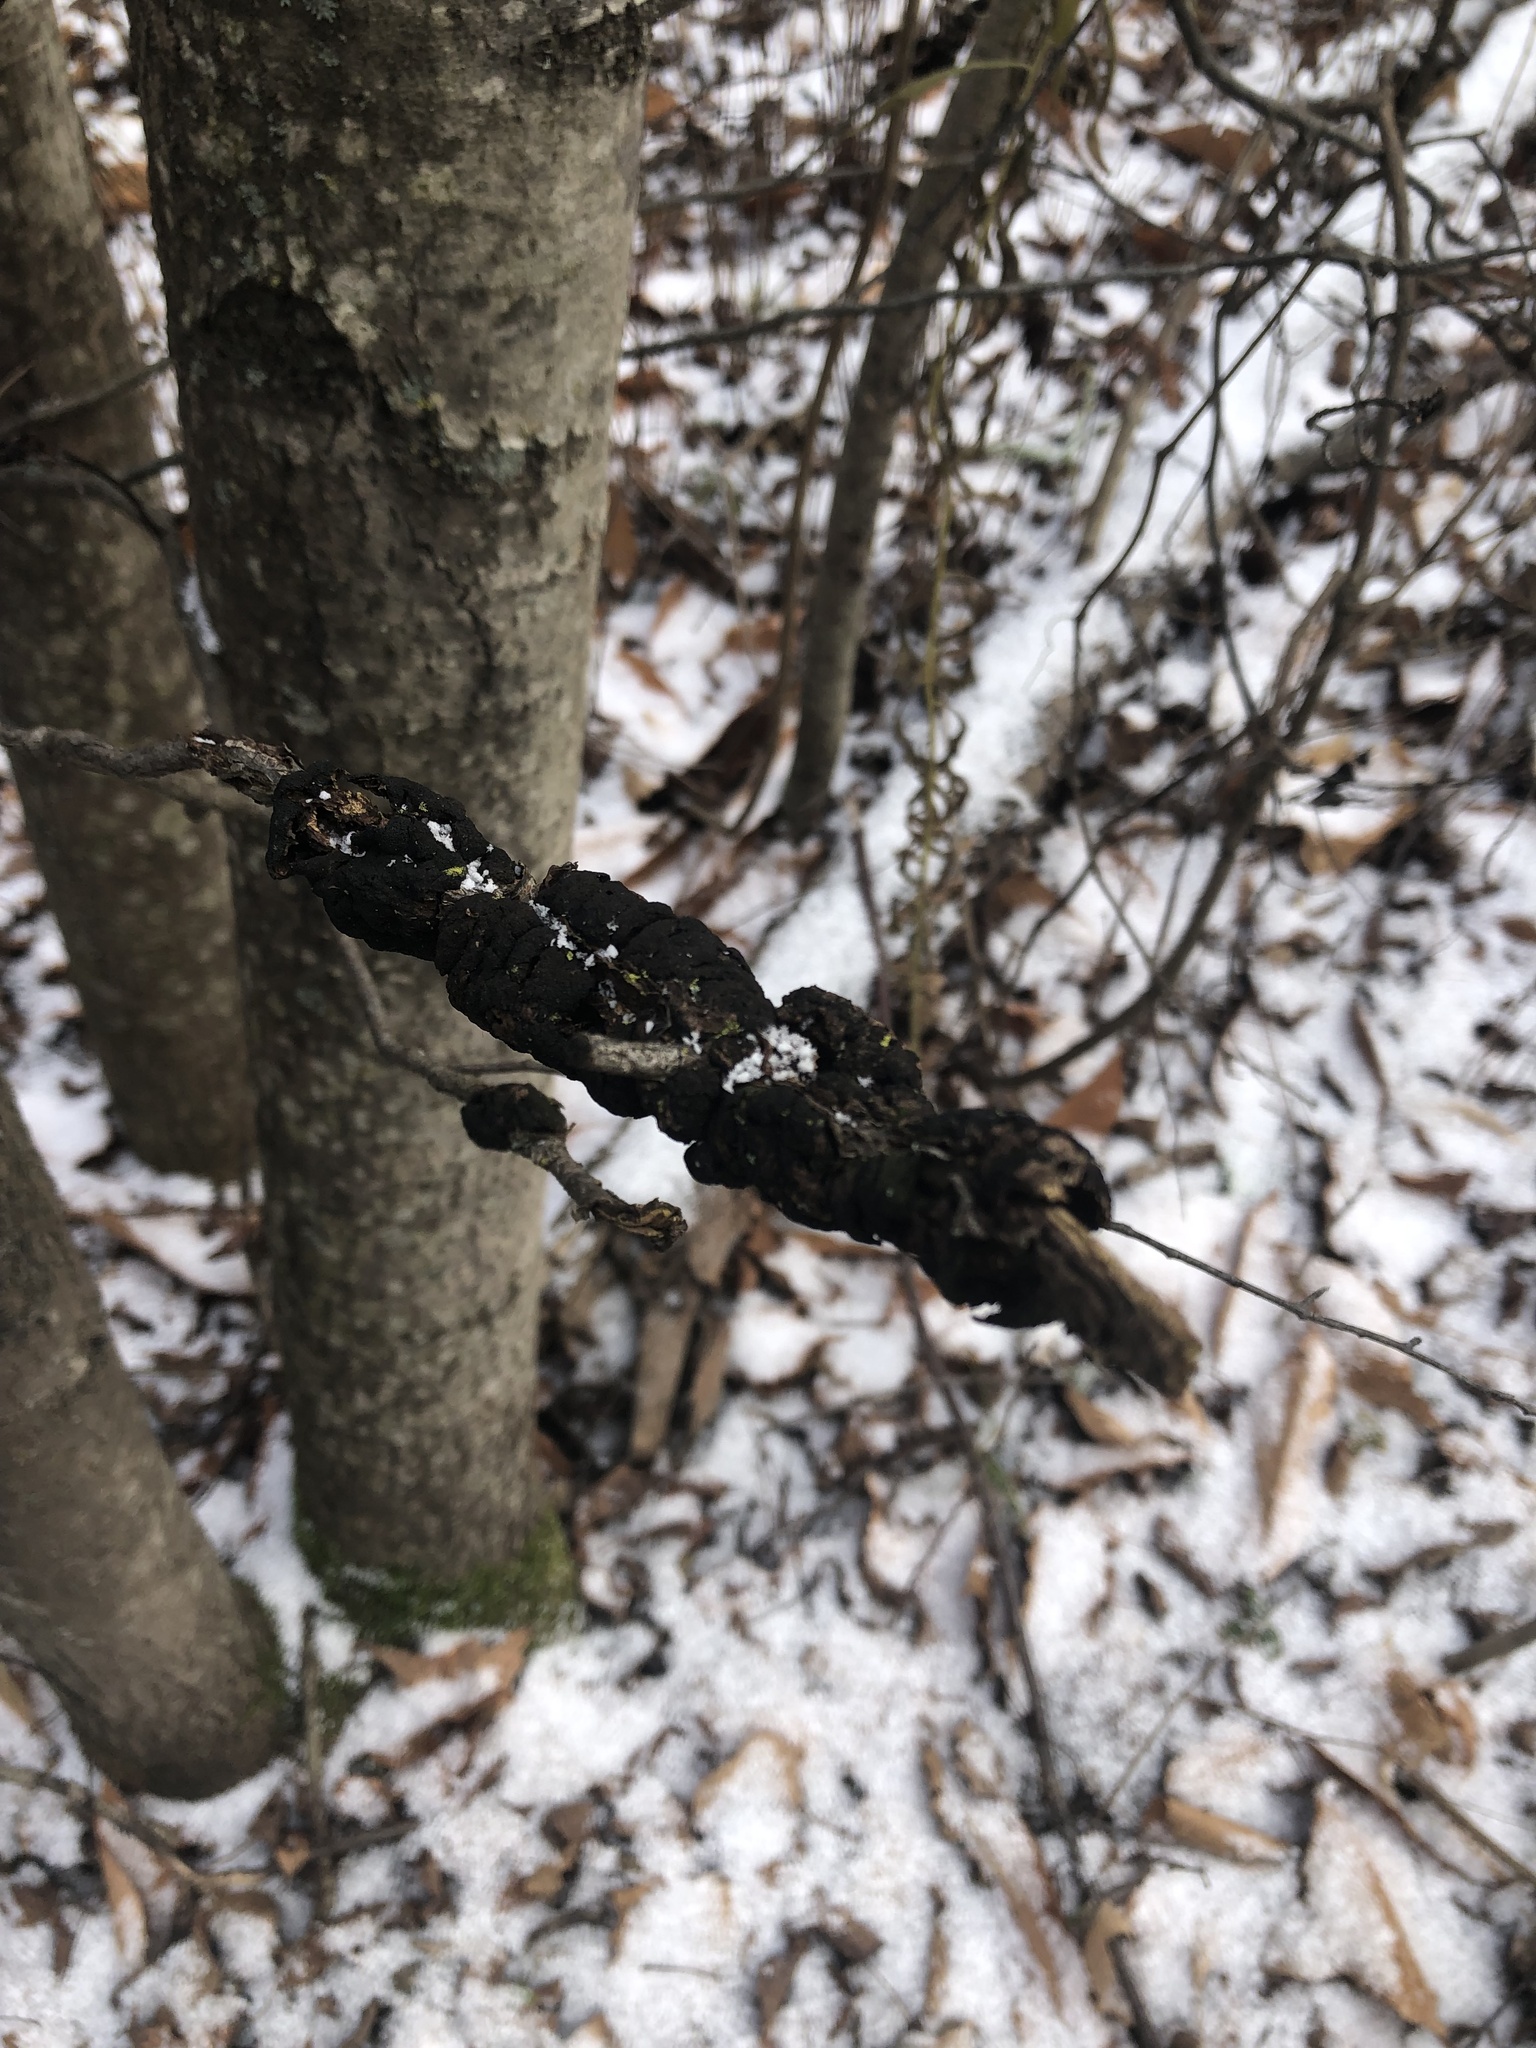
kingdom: Fungi
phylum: Ascomycota
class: Dothideomycetes
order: Venturiales
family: Venturiaceae
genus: Apiosporina
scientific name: Apiosporina morbosa
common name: Black knot
